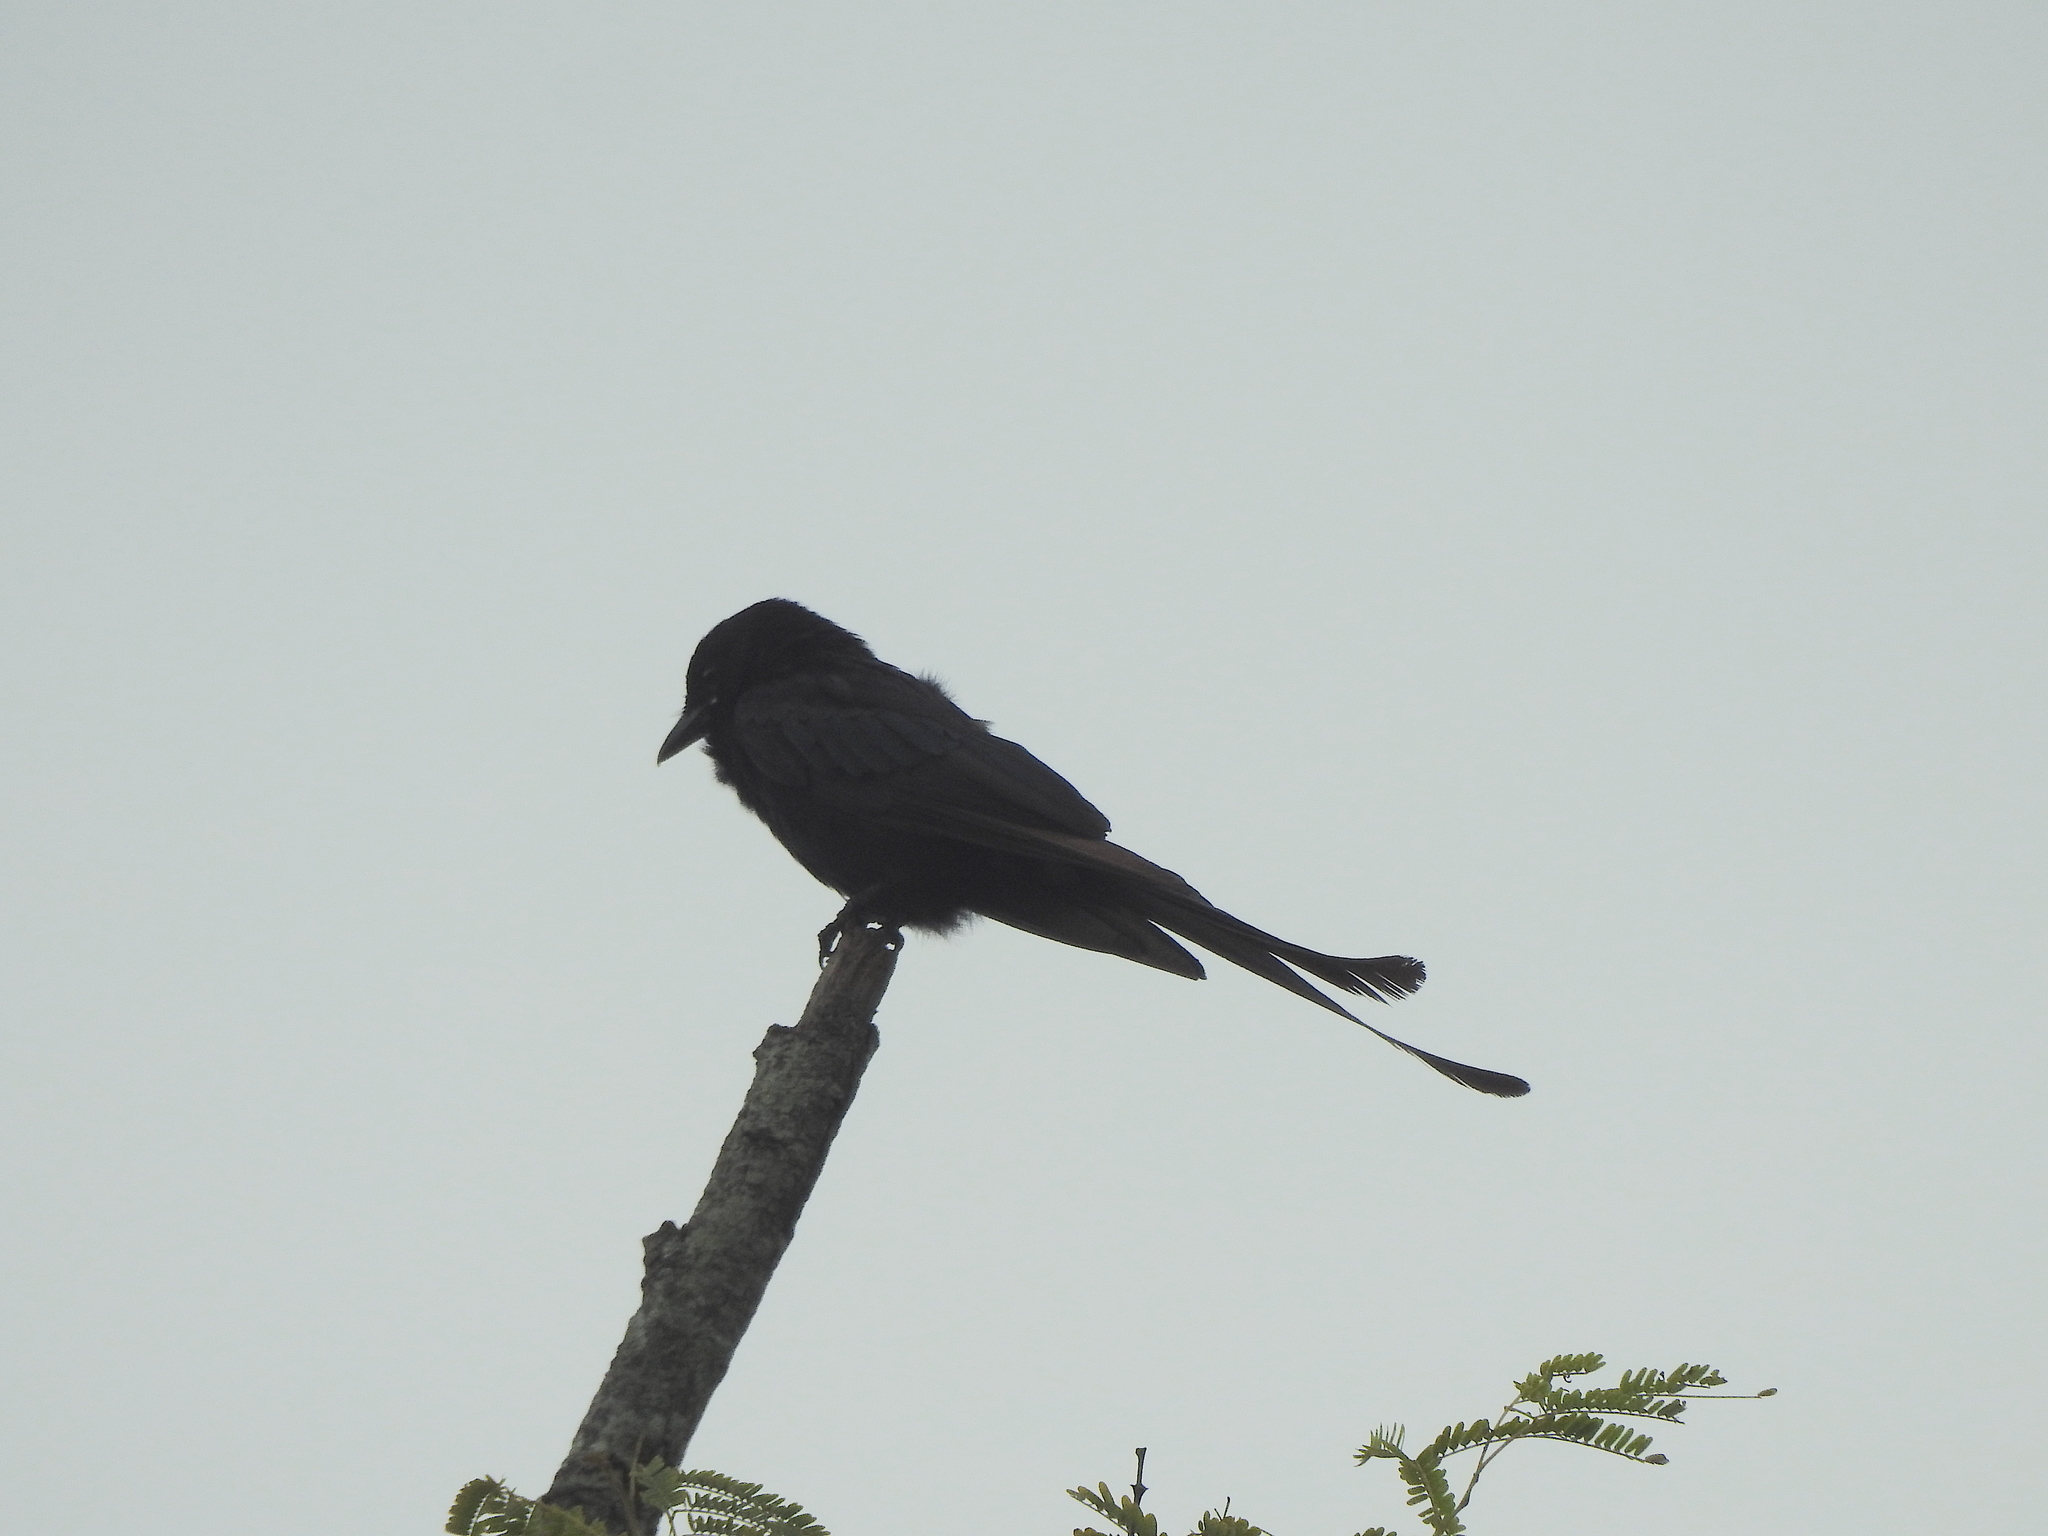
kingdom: Animalia
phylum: Chordata
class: Aves
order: Passeriformes
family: Dicruridae
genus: Dicrurus
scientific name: Dicrurus macrocercus
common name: Black drongo
